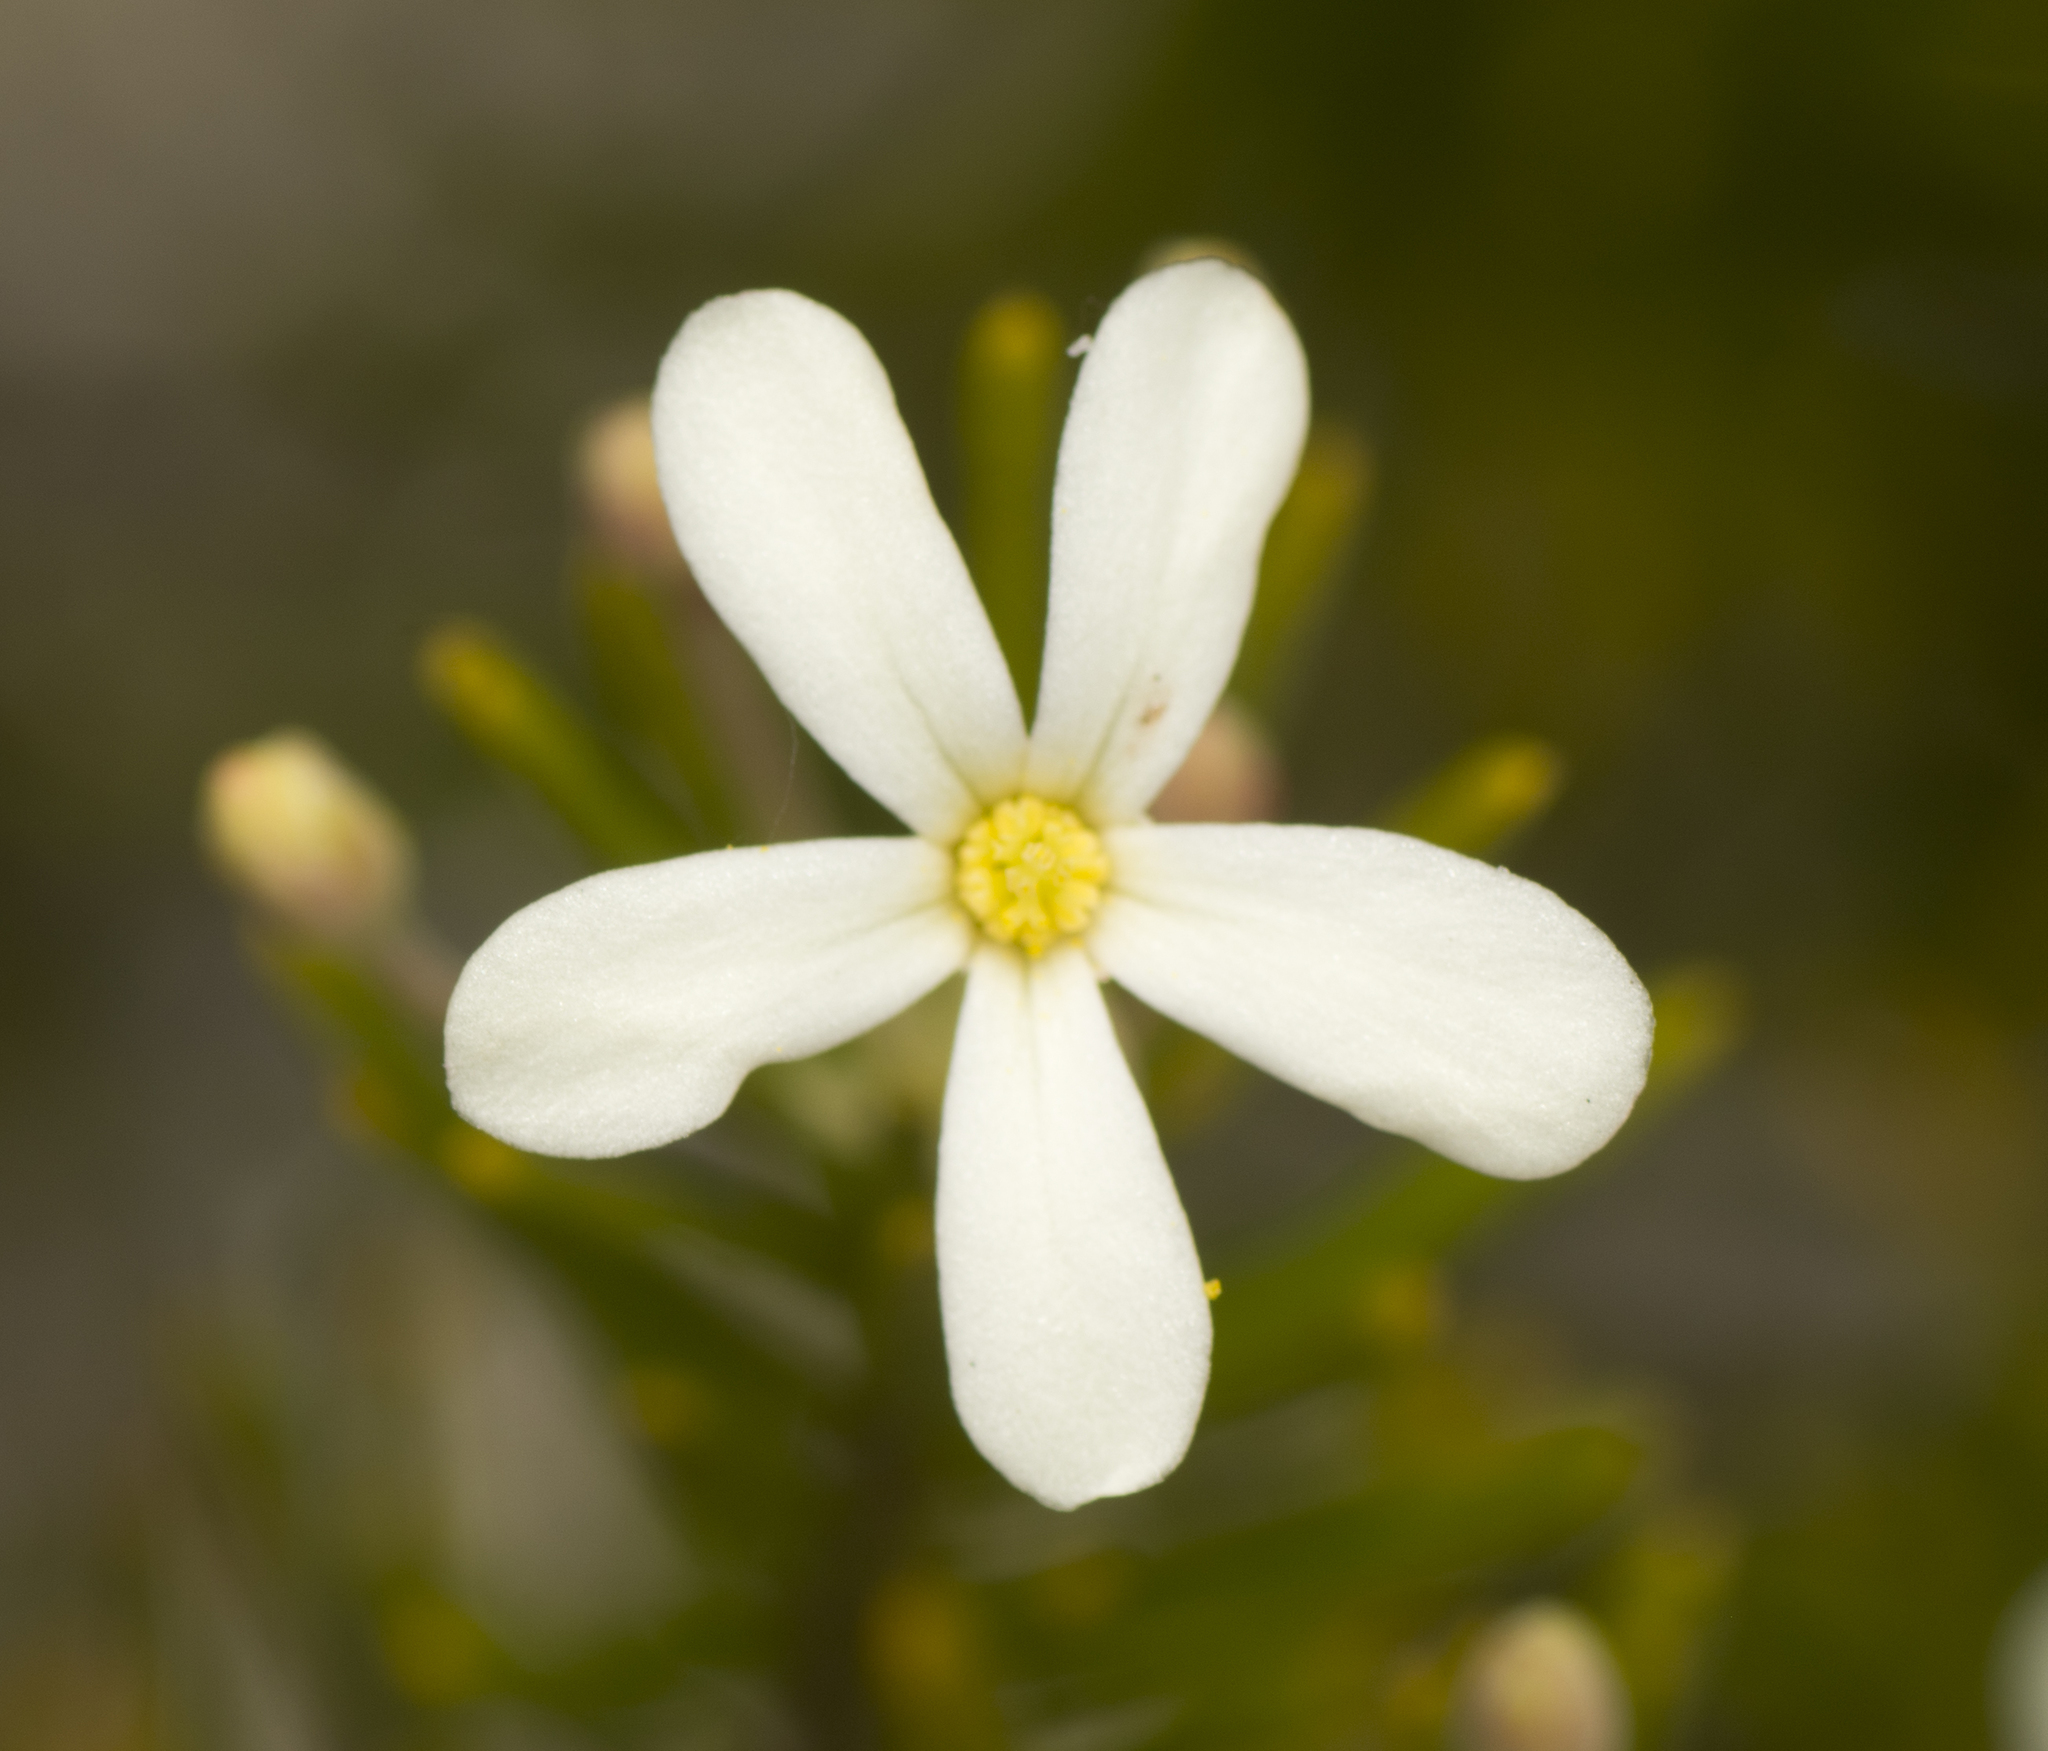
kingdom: Plantae
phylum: Tracheophyta
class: Magnoliopsida
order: Malpighiales
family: Euphorbiaceae
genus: Ricinocarpos
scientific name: Ricinocarpos pinifolius
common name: Weddingbush
